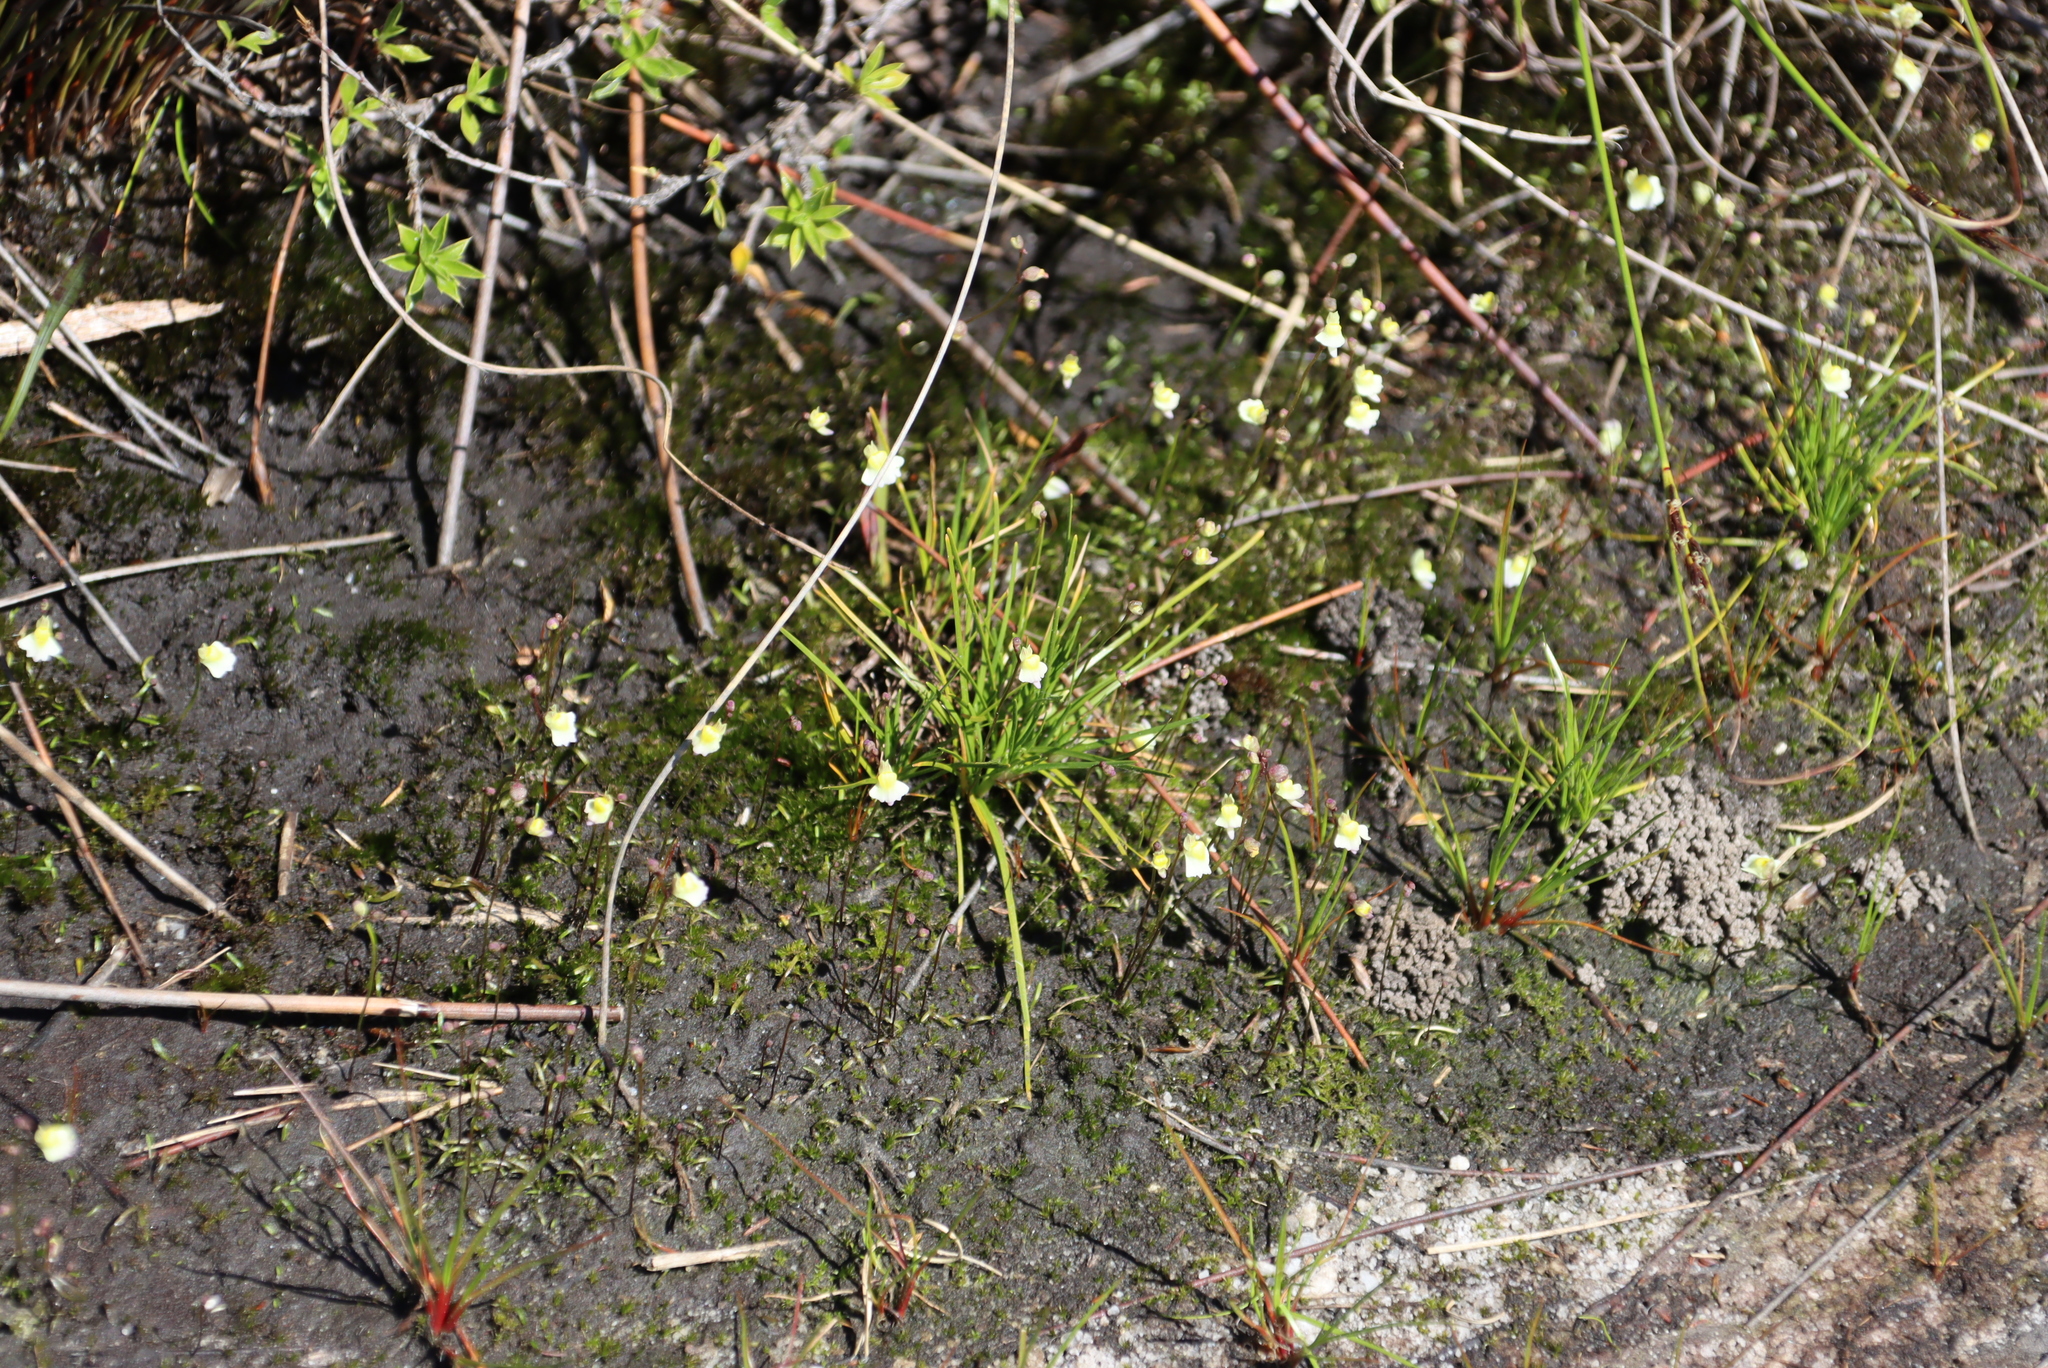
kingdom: Plantae
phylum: Tracheophyta
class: Magnoliopsida
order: Lamiales
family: Lentibulariaceae
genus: Utricularia
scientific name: Utricularia bisquamata
